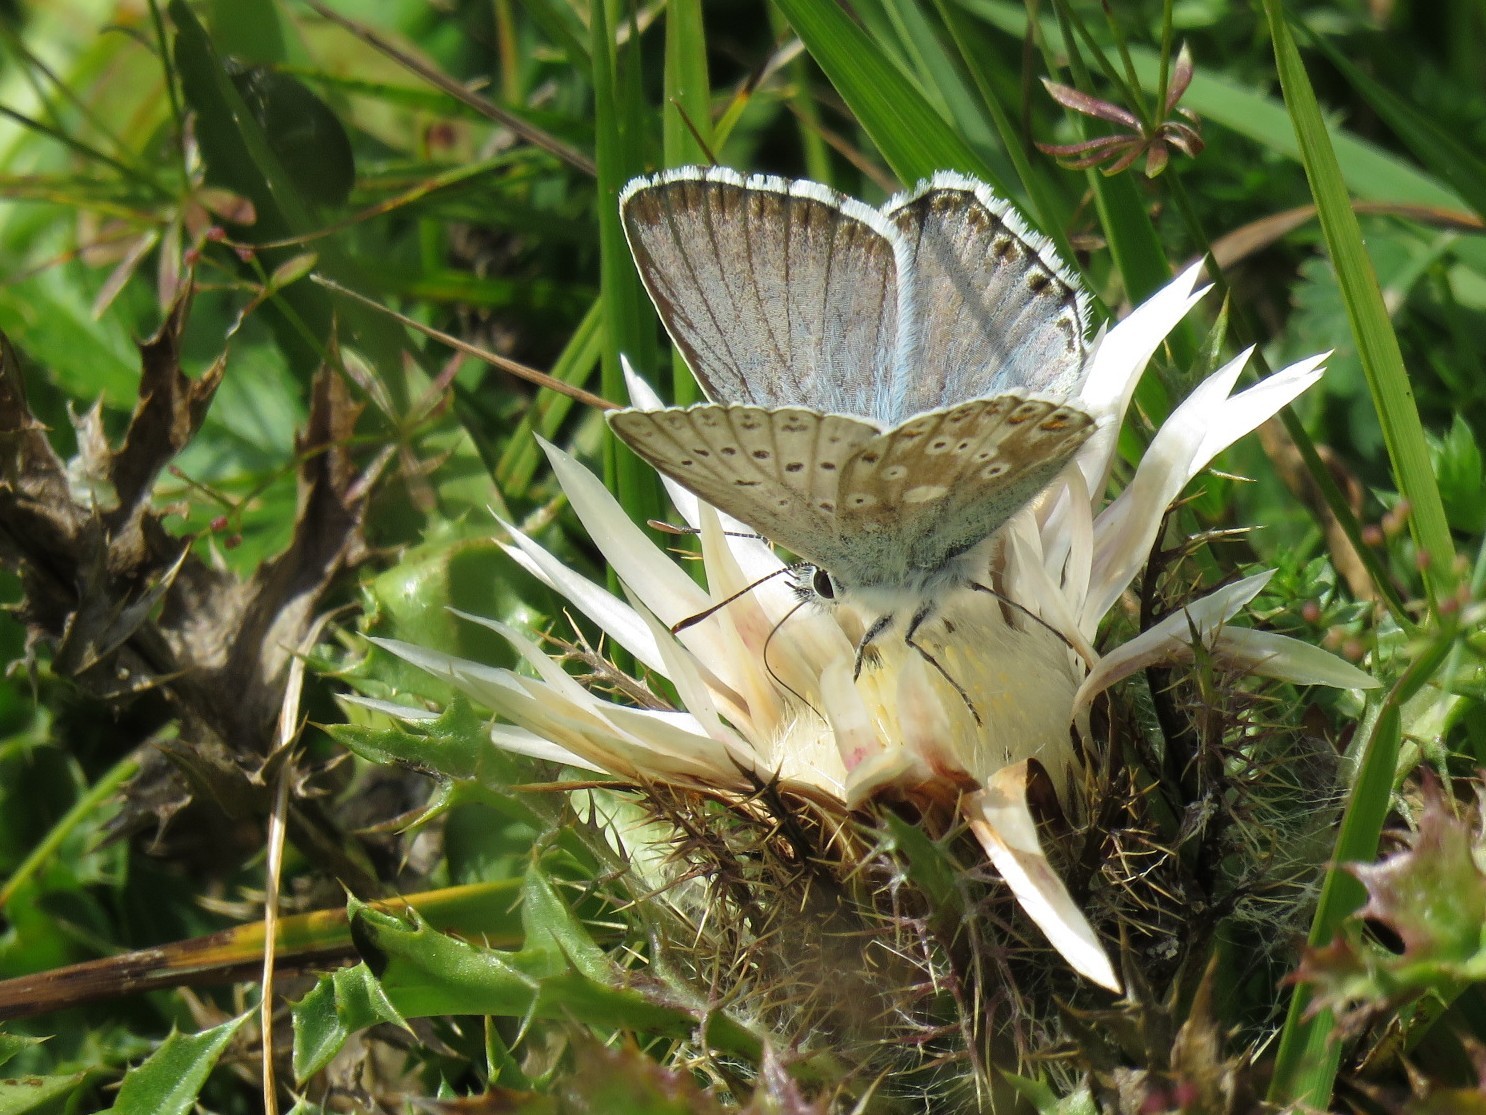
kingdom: Animalia
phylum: Arthropoda
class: Insecta
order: Lepidoptera
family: Lycaenidae
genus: Lysandra
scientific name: Lysandra coridon
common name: Chalkhill blue
